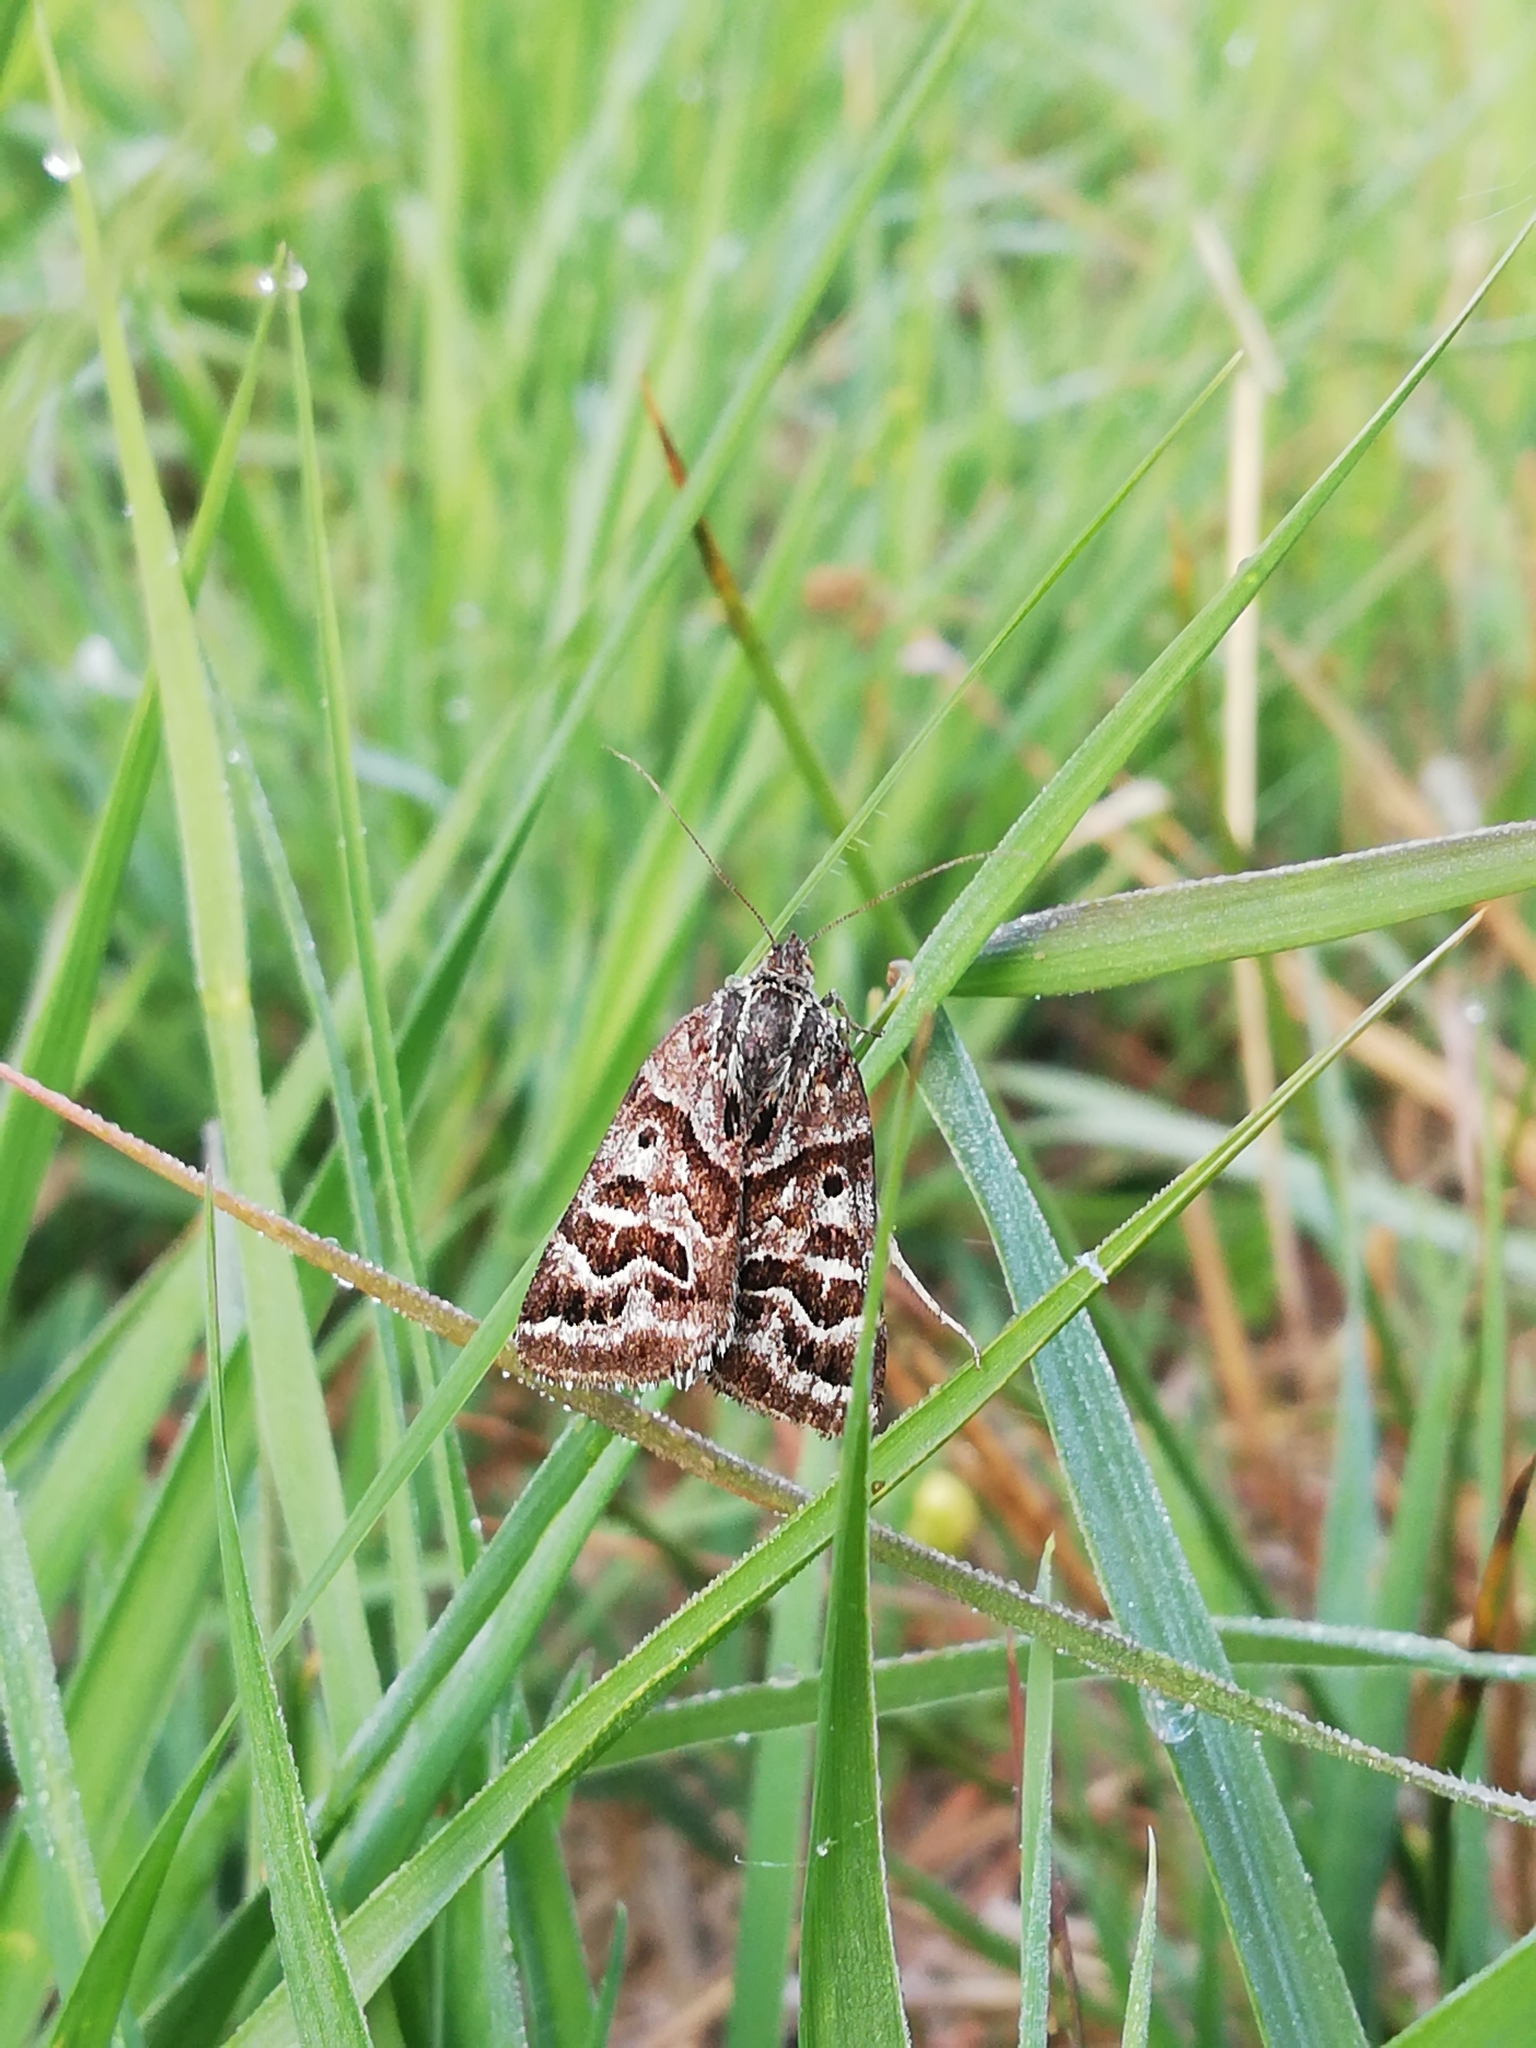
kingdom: Animalia
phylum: Arthropoda
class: Insecta
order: Lepidoptera
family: Erebidae
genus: Callistege
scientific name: Callistege mi
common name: Mother shipton
